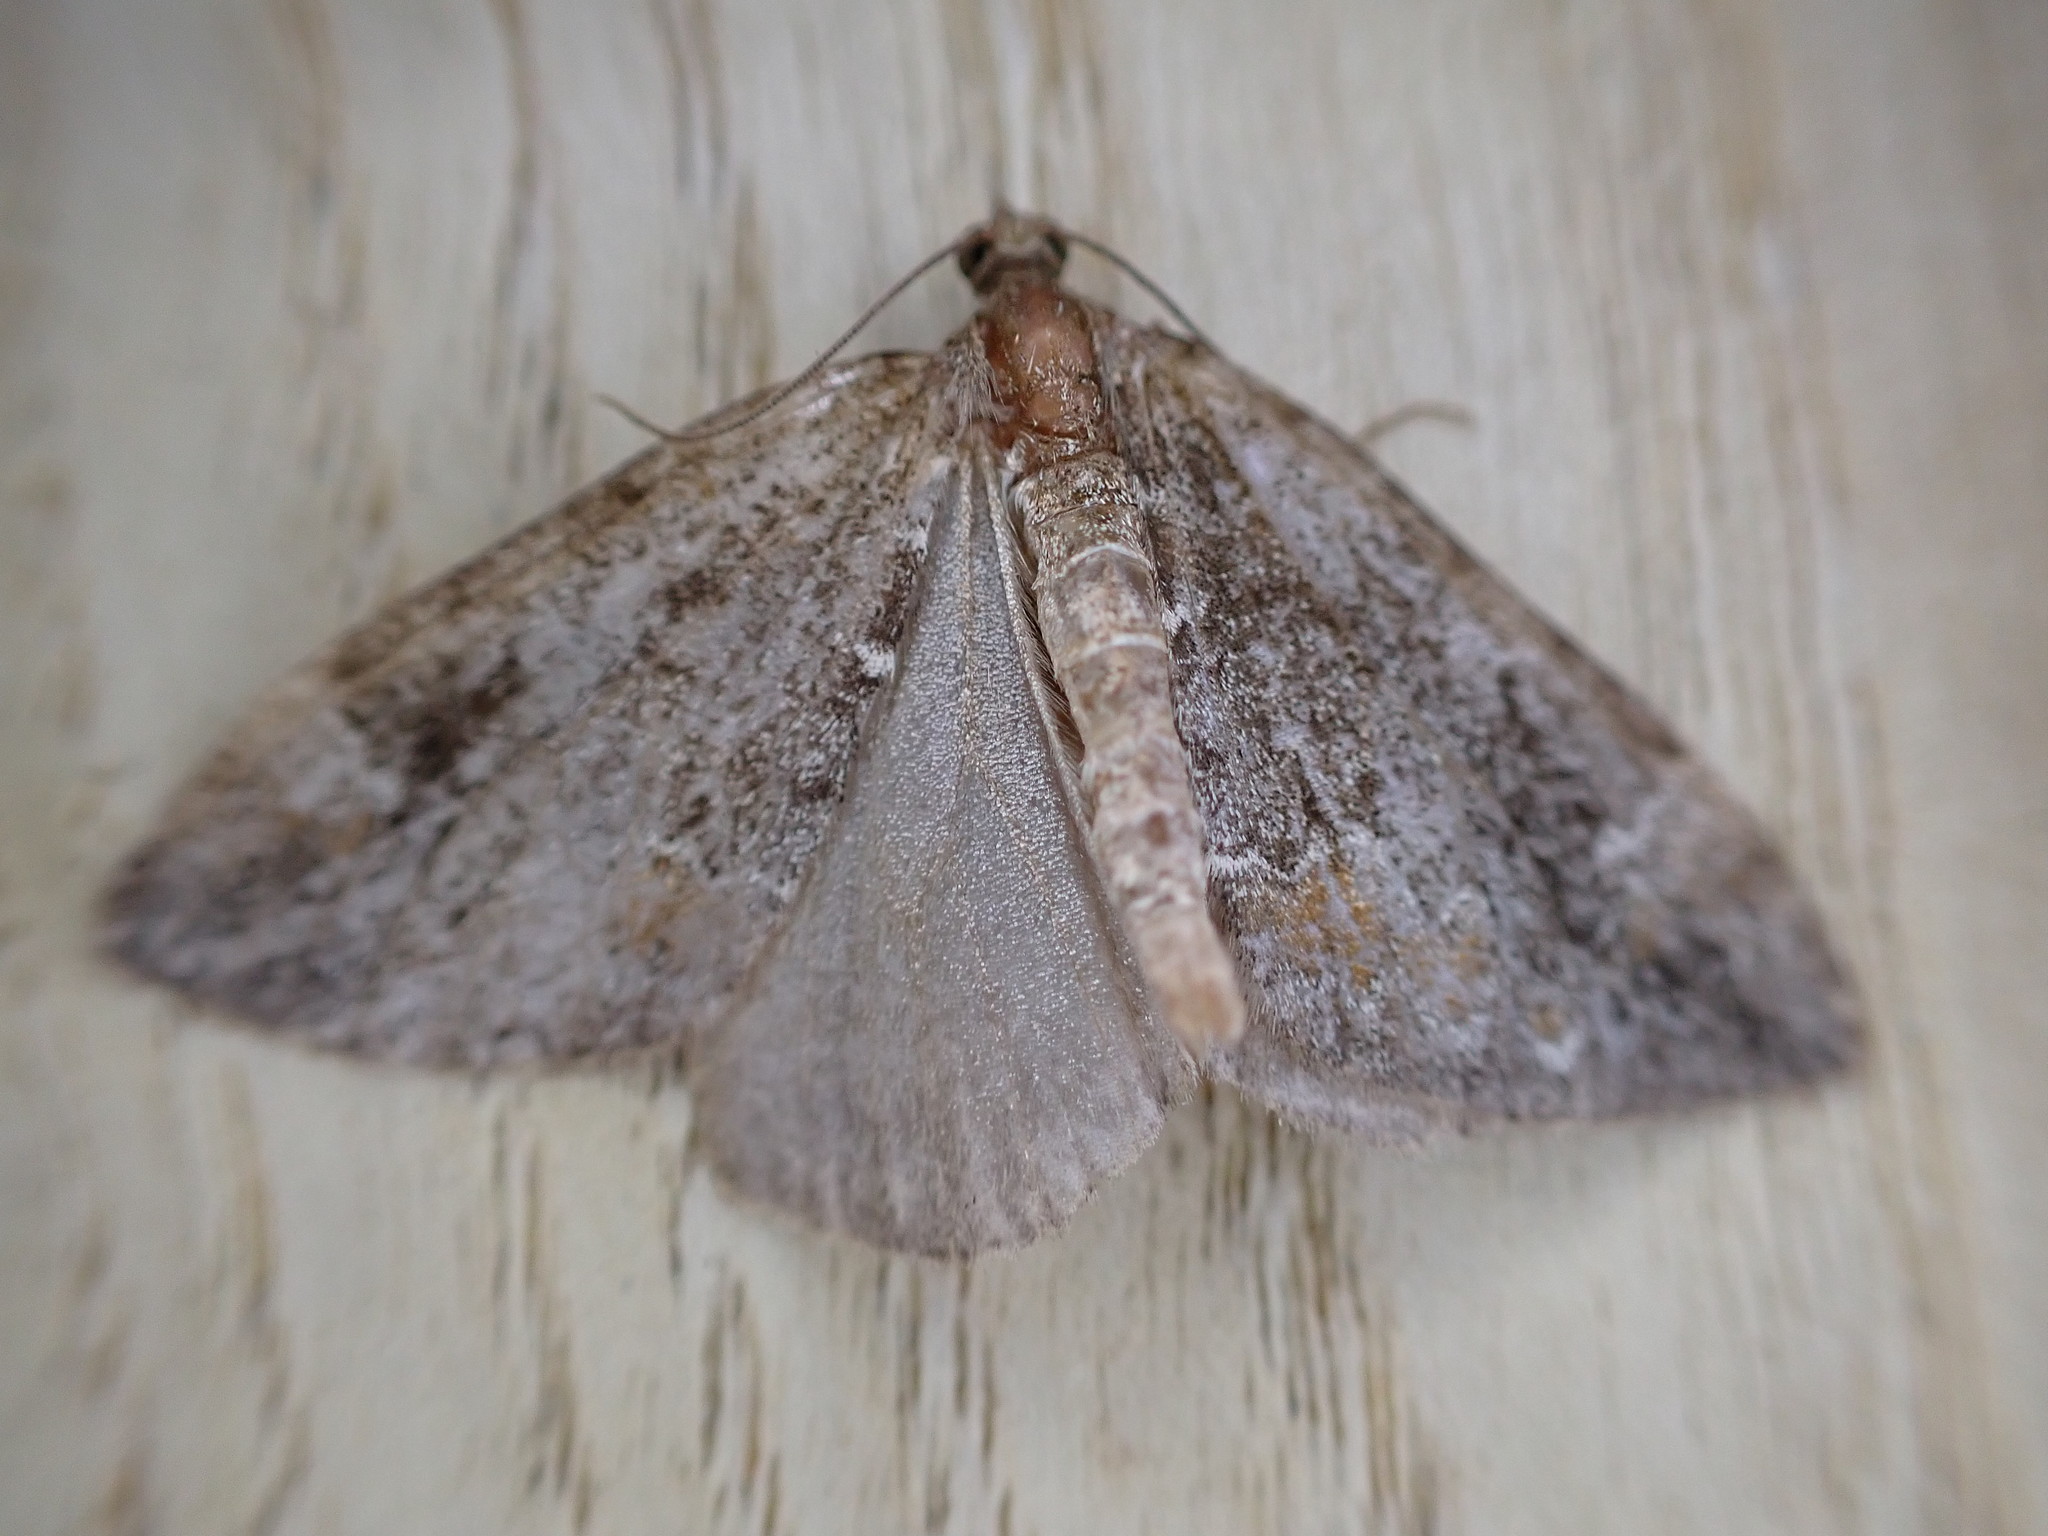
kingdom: Animalia
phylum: Arthropoda
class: Insecta
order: Lepidoptera
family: Geometridae
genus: Dysstroma
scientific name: Dysstroma truncata
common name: Common marbled carpet
